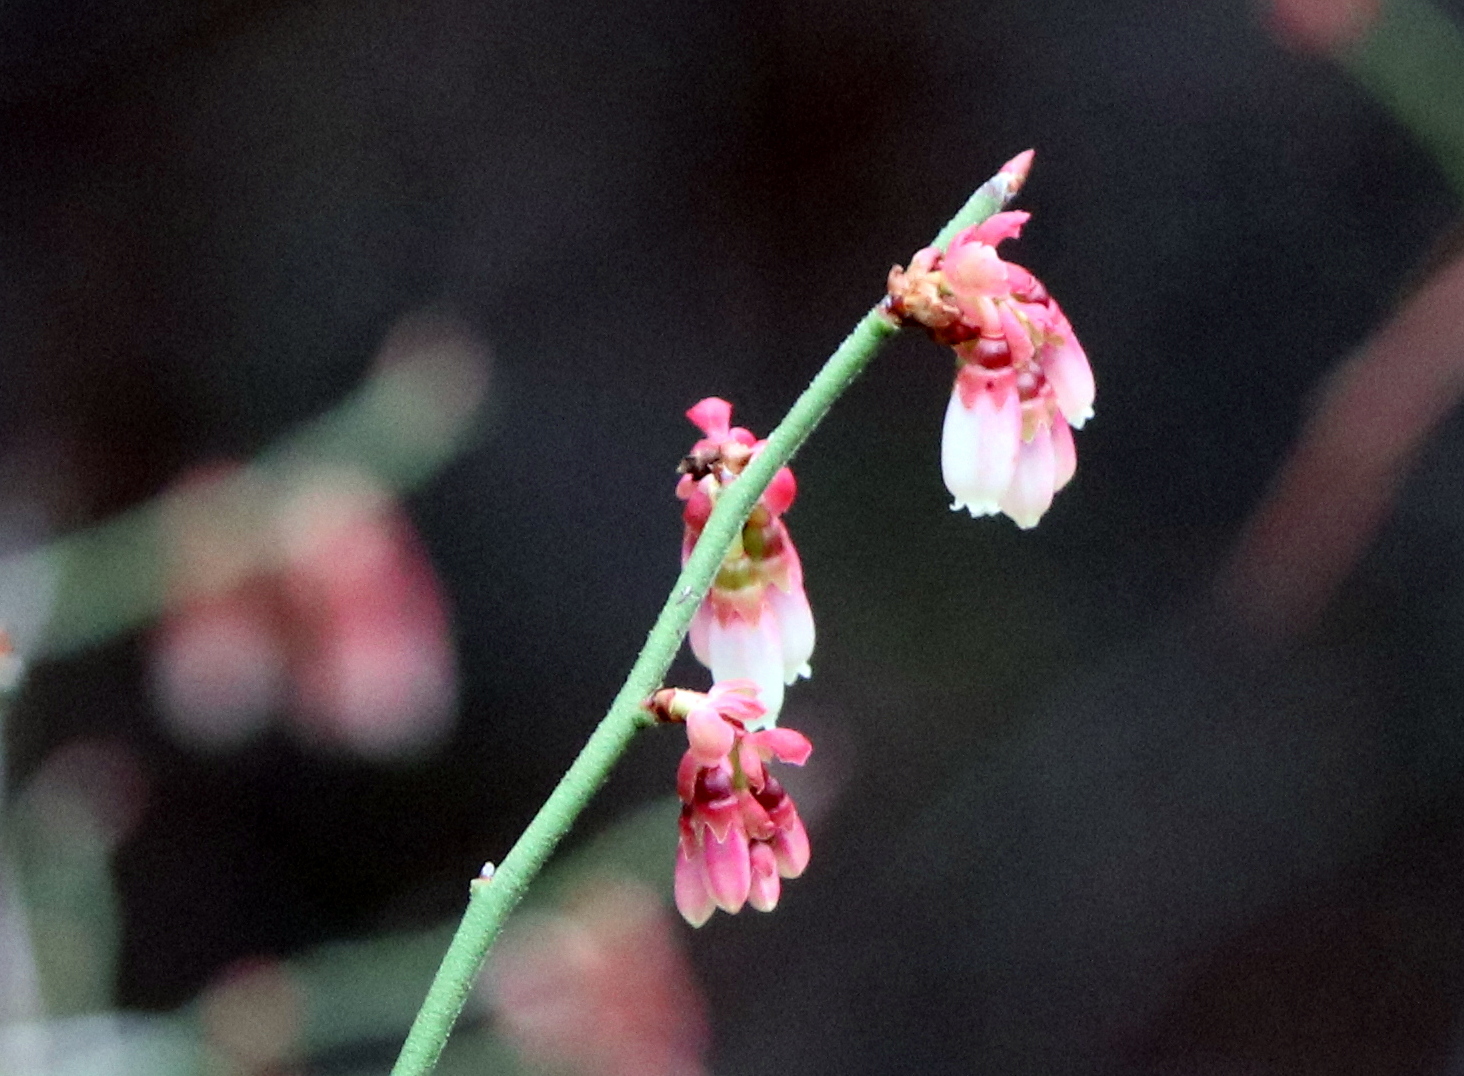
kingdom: Plantae
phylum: Tracheophyta
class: Magnoliopsida
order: Ericales
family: Ericaceae
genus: Vaccinium
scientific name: Vaccinium corymbosum
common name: Blueberry
